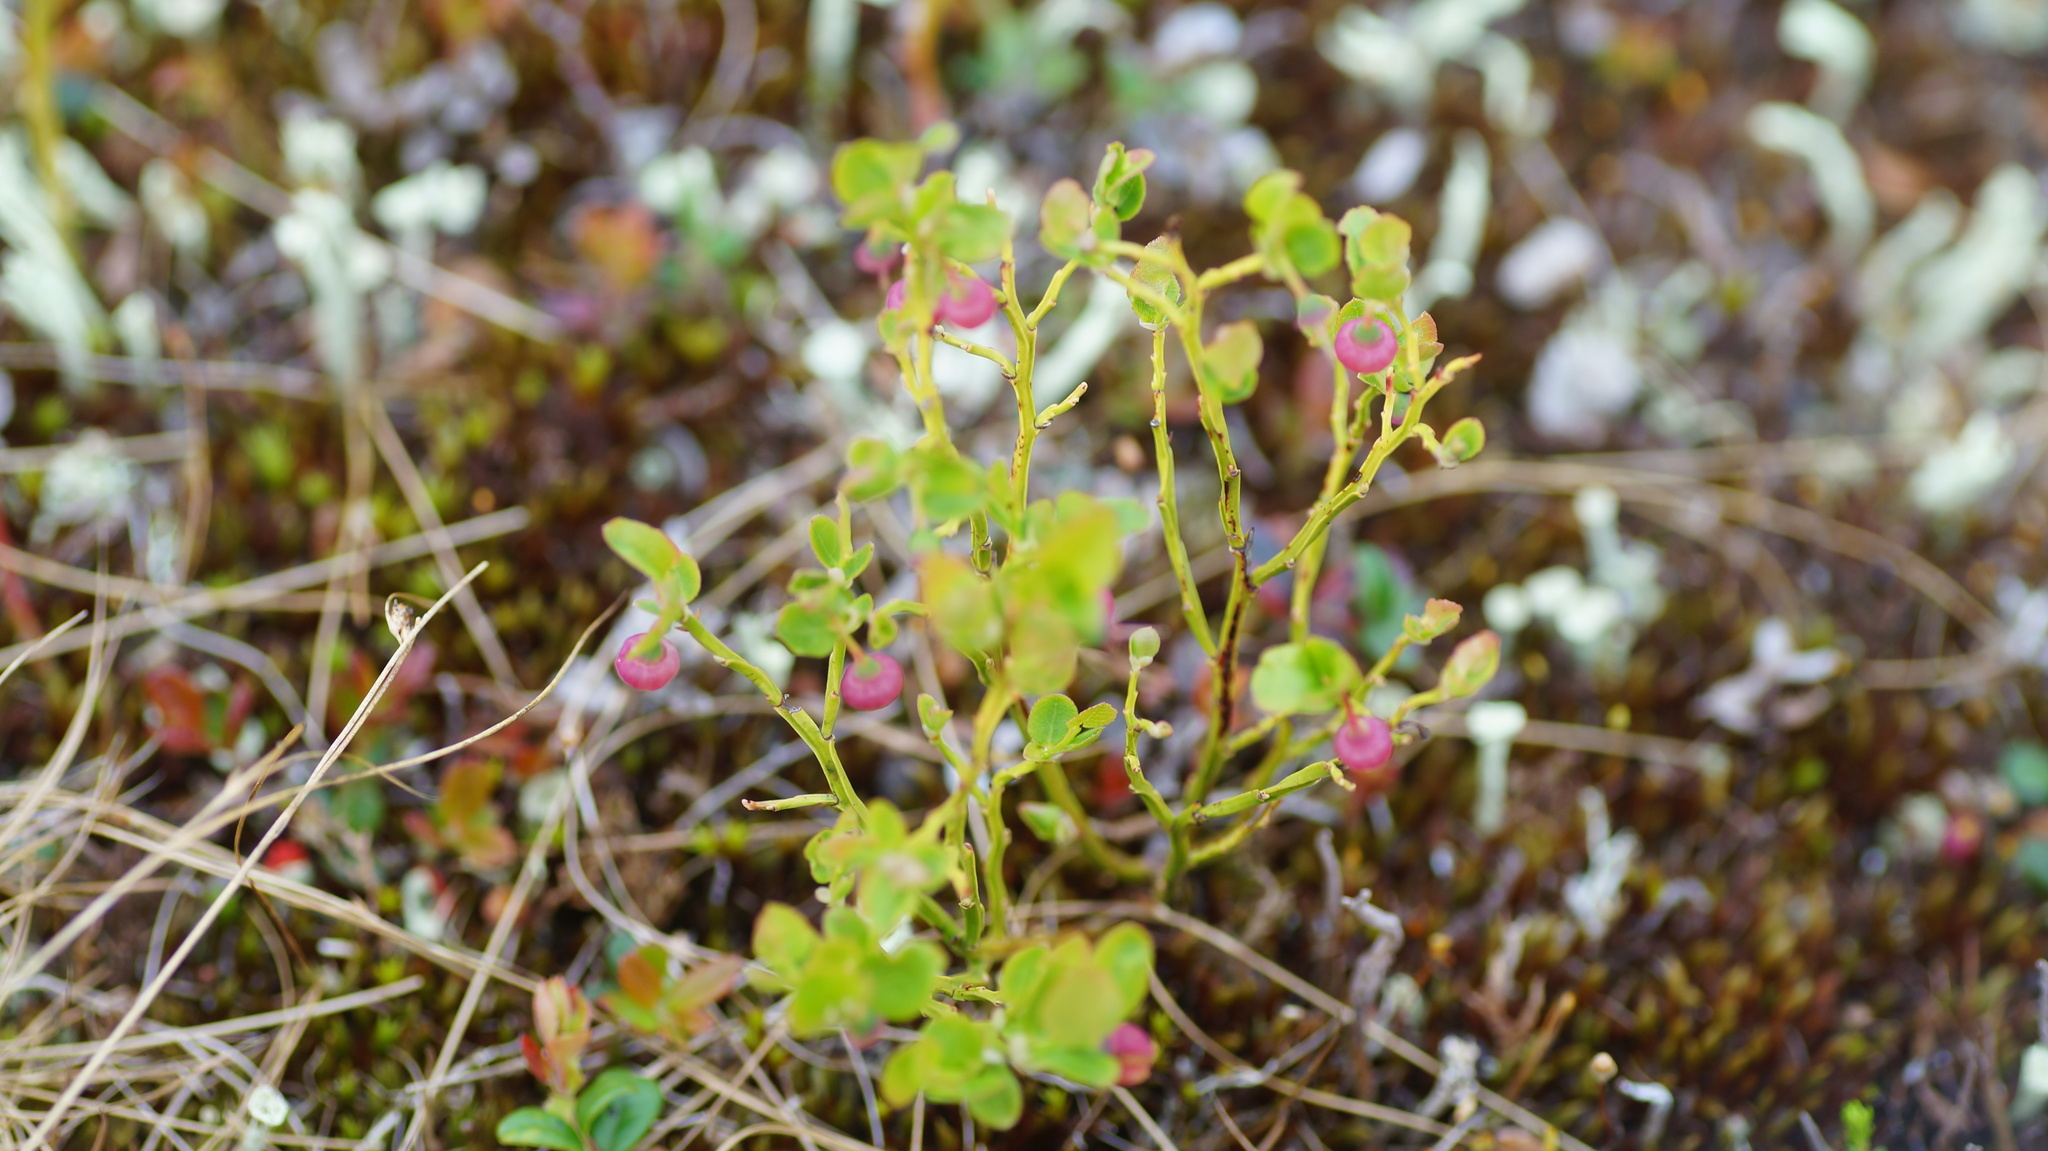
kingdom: Plantae
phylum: Tracheophyta
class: Magnoliopsida
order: Ericales
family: Ericaceae
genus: Vaccinium
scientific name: Vaccinium myrtillus
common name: Bilberry
